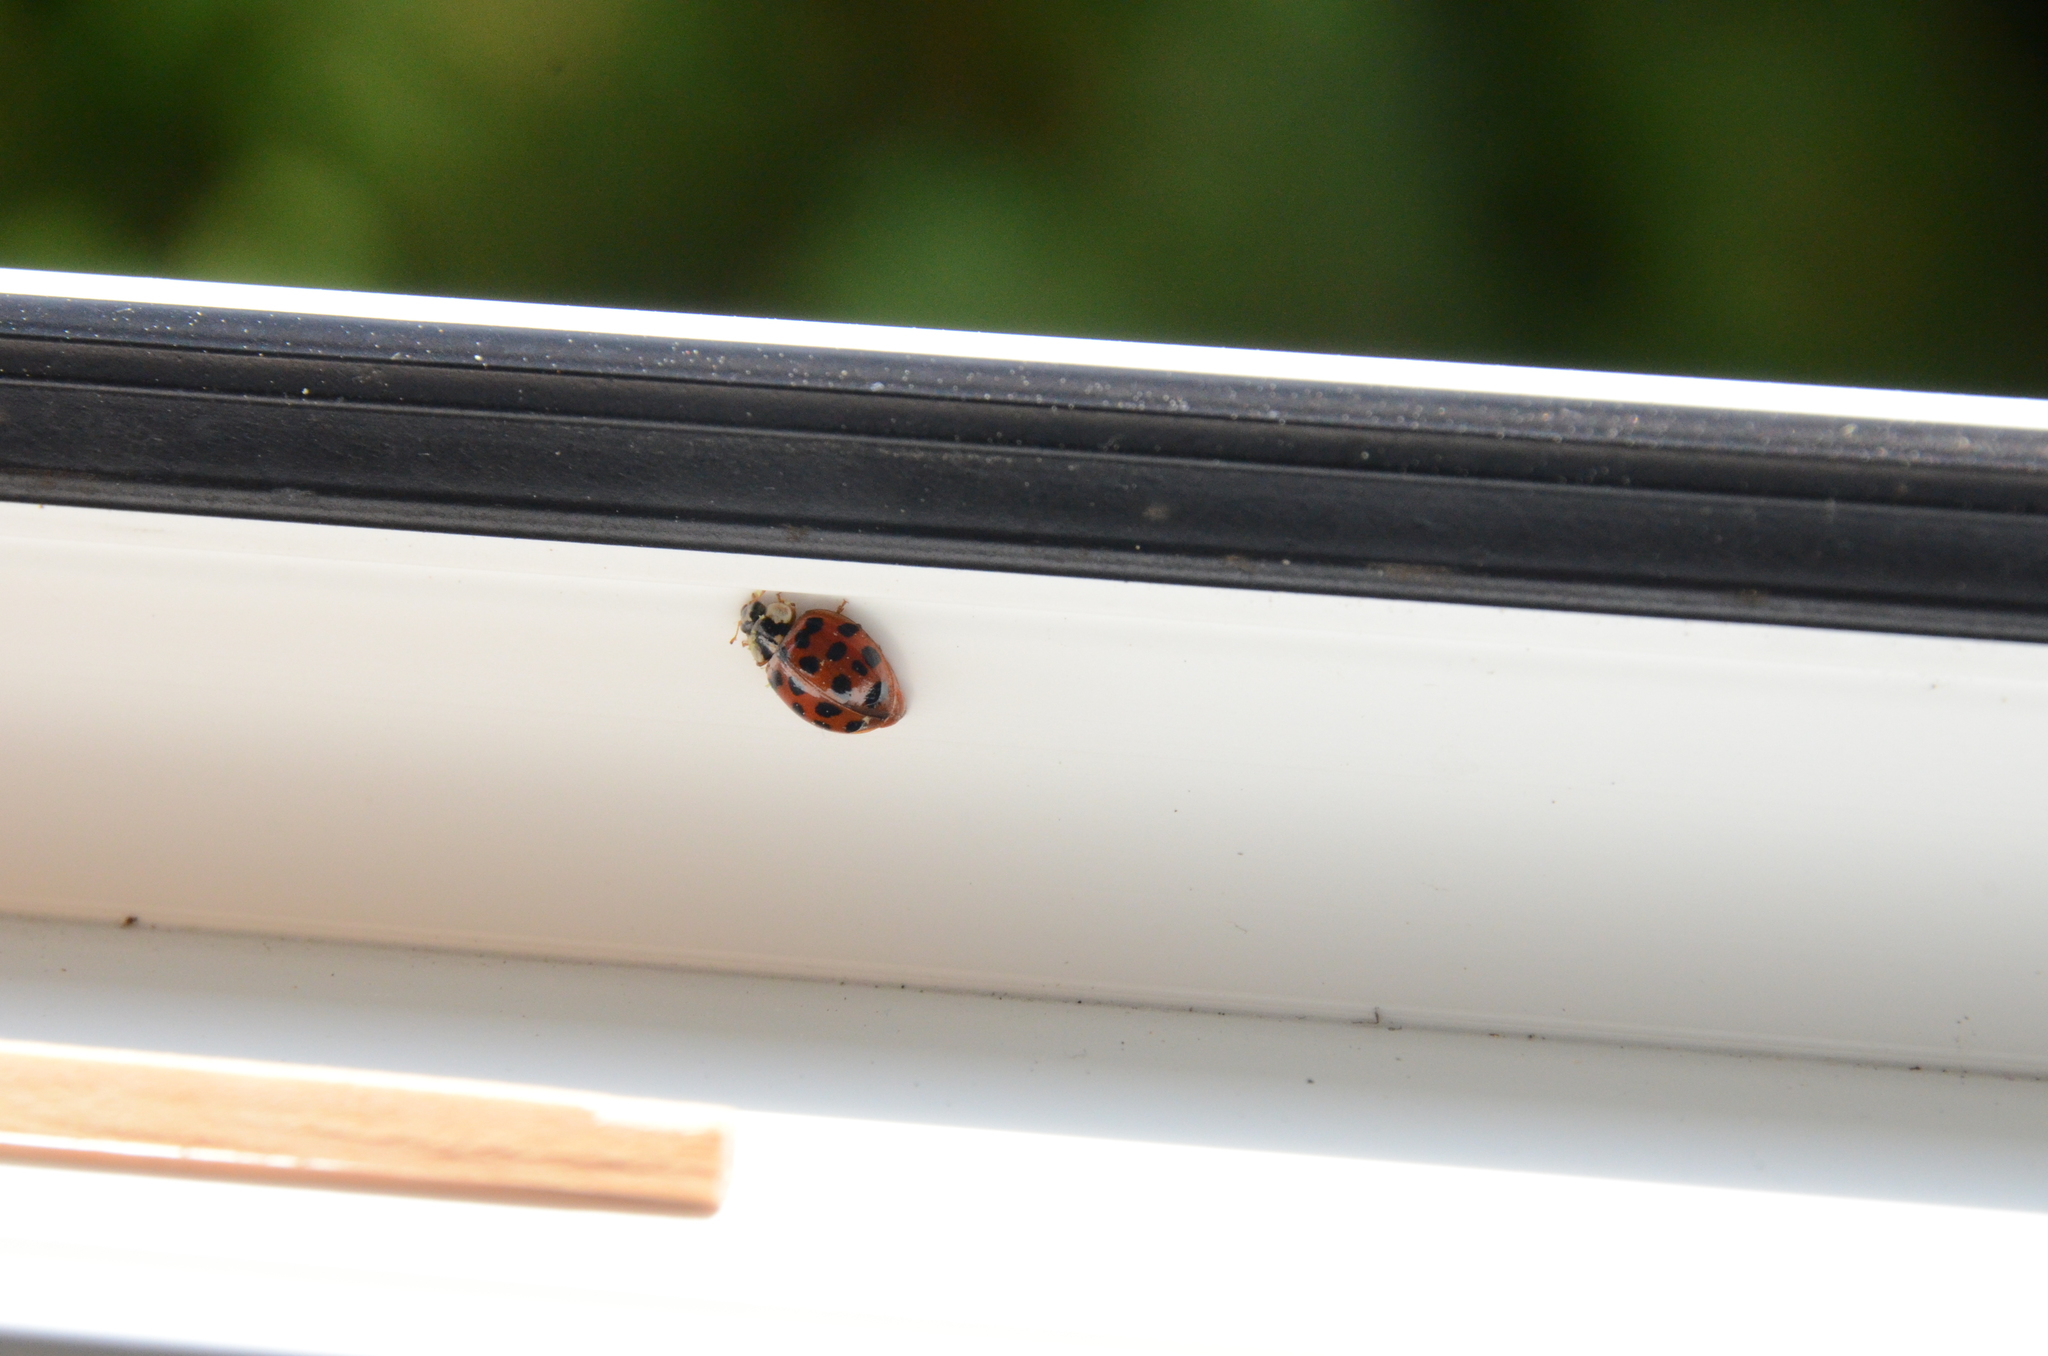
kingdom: Animalia
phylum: Arthropoda
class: Insecta
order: Coleoptera
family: Coccinellidae
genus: Harmonia
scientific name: Harmonia axyridis
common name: Harlequin ladybird
